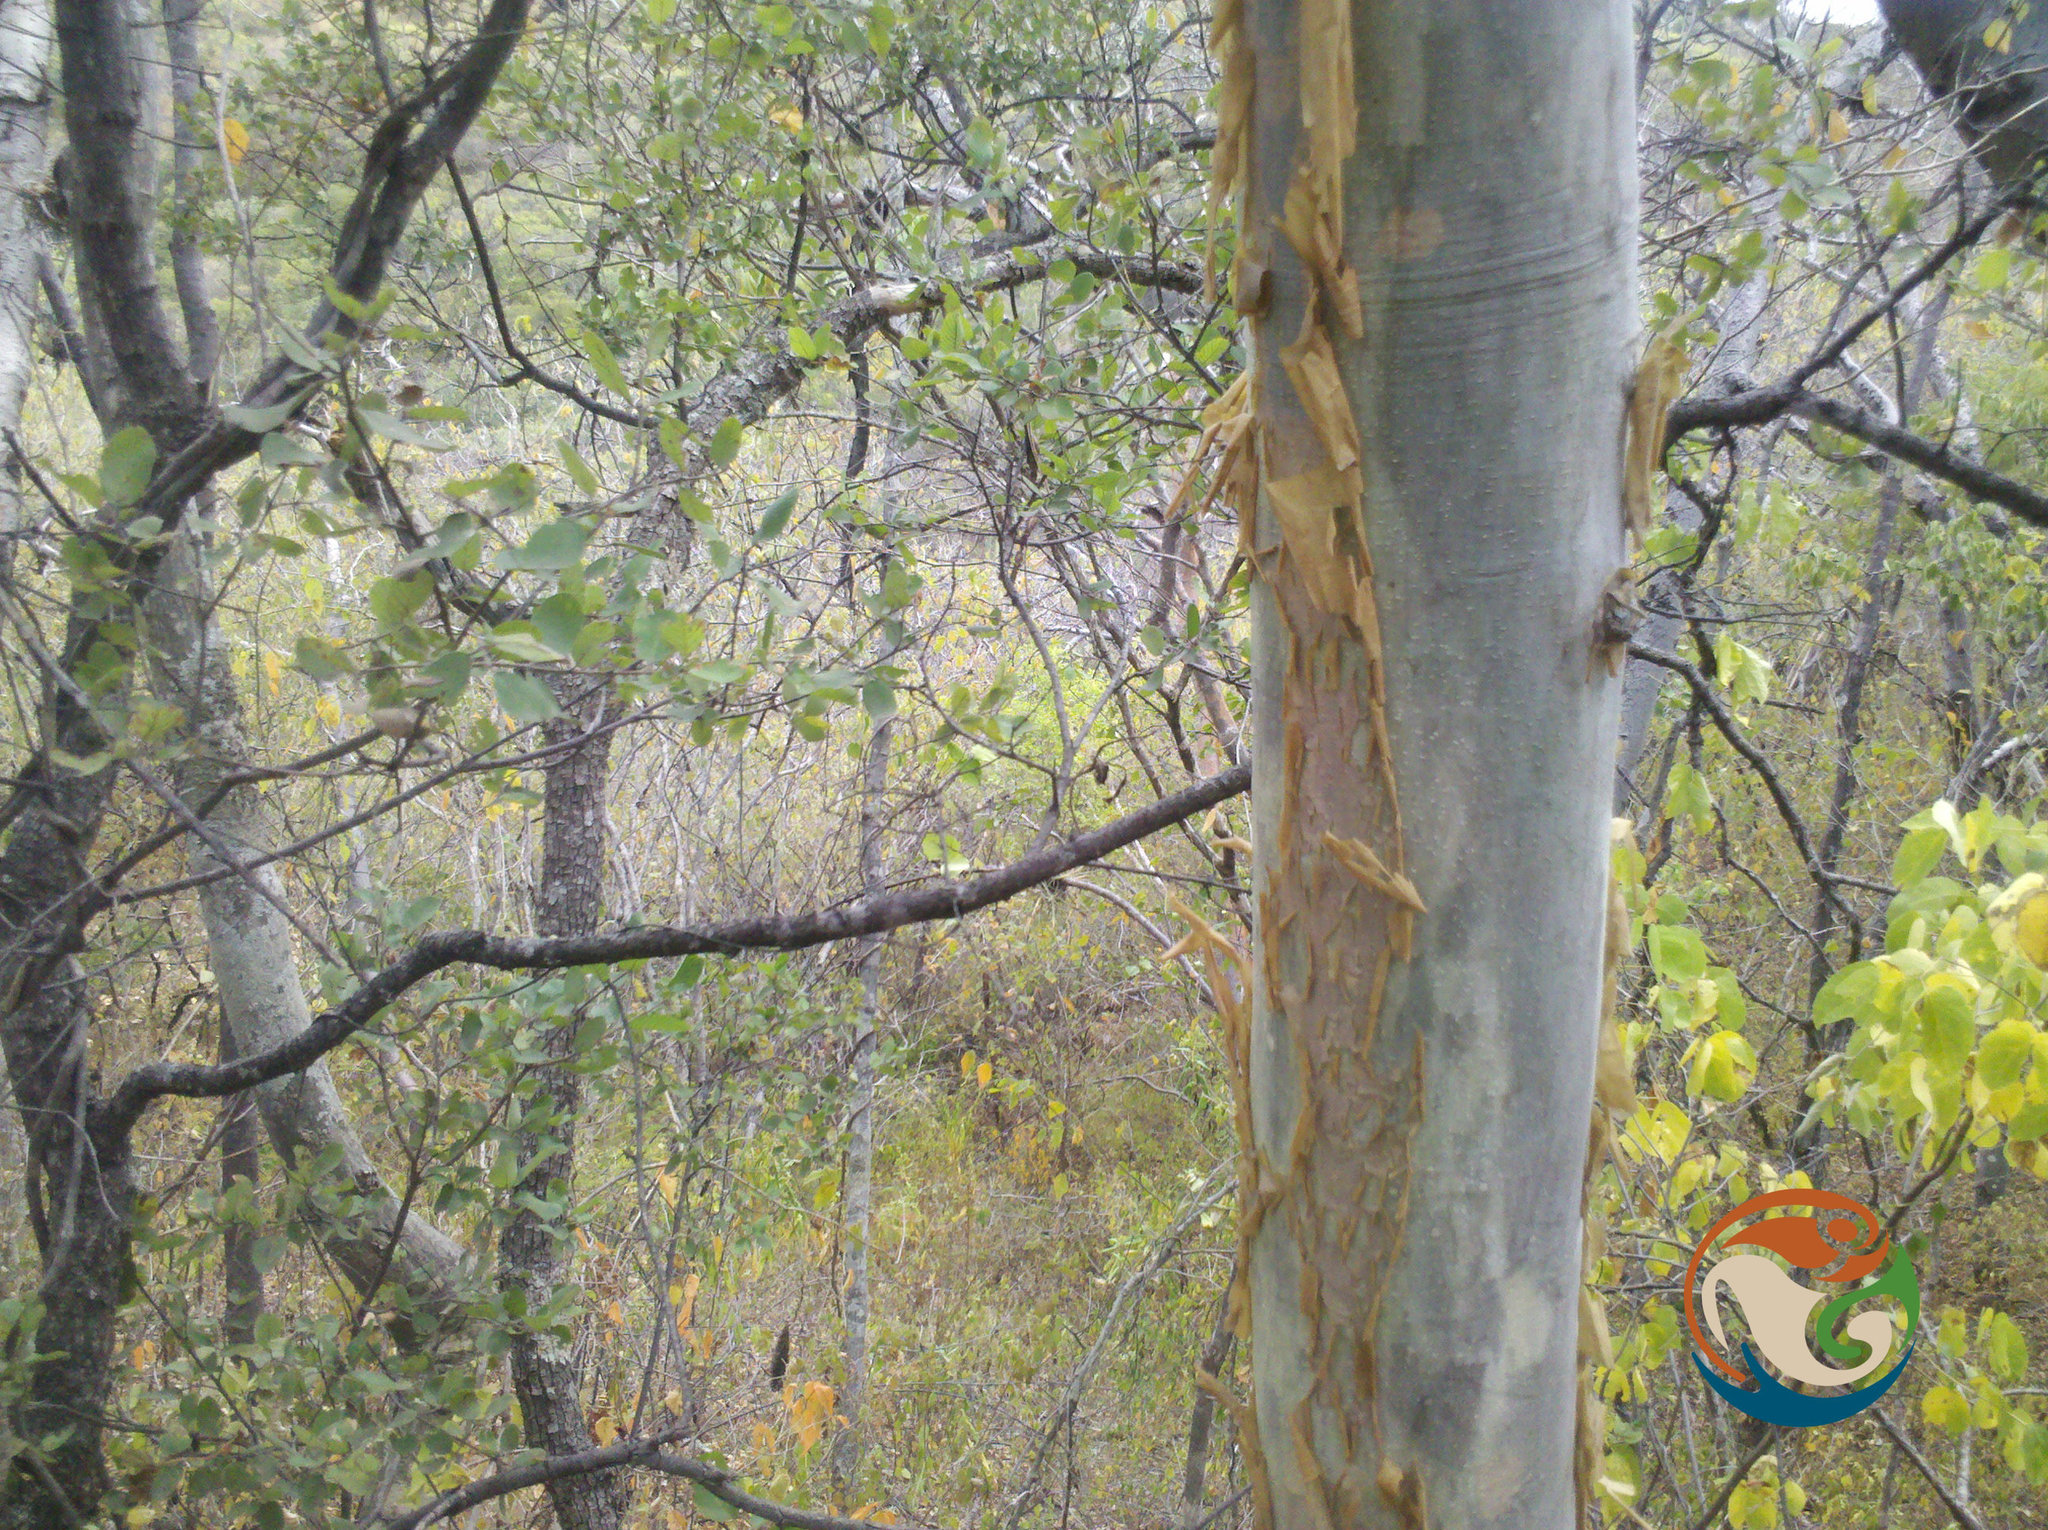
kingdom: Plantae
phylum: Tracheophyta
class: Magnoliopsida
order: Fabales
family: Fabaceae
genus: Mariosousa
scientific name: Mariosousa coulteri
